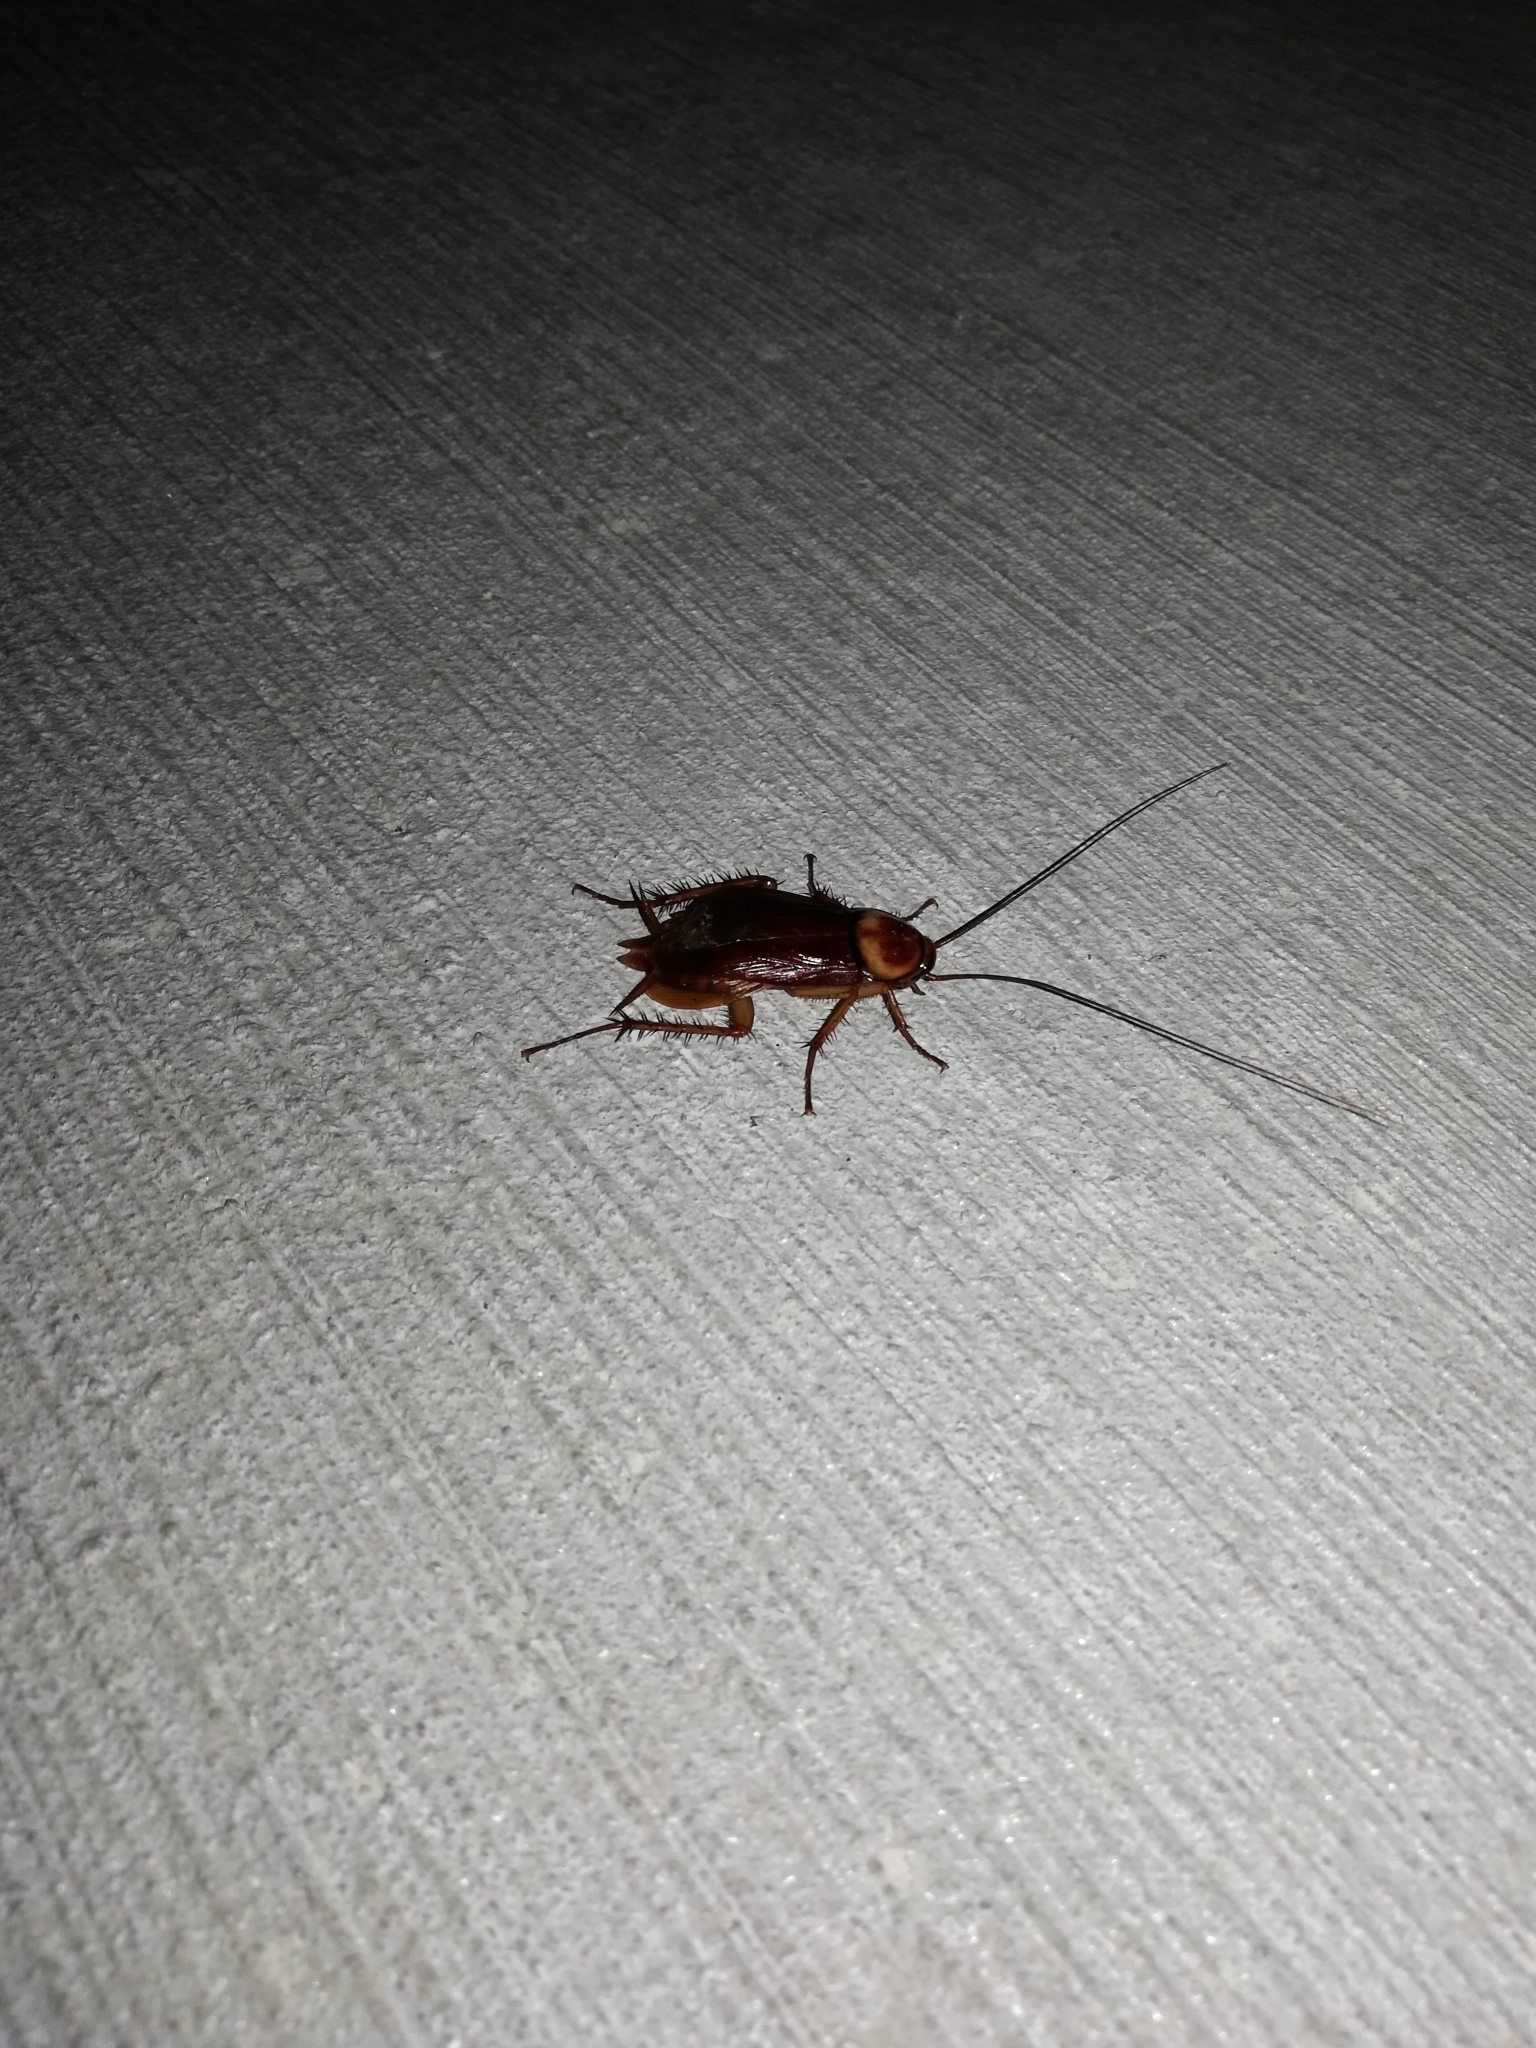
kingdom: Animalia
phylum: Arthropoda
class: Insecta
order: Blattodea
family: Blattidae
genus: Periplaneta
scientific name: Periplaneta americana
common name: American cockroach
